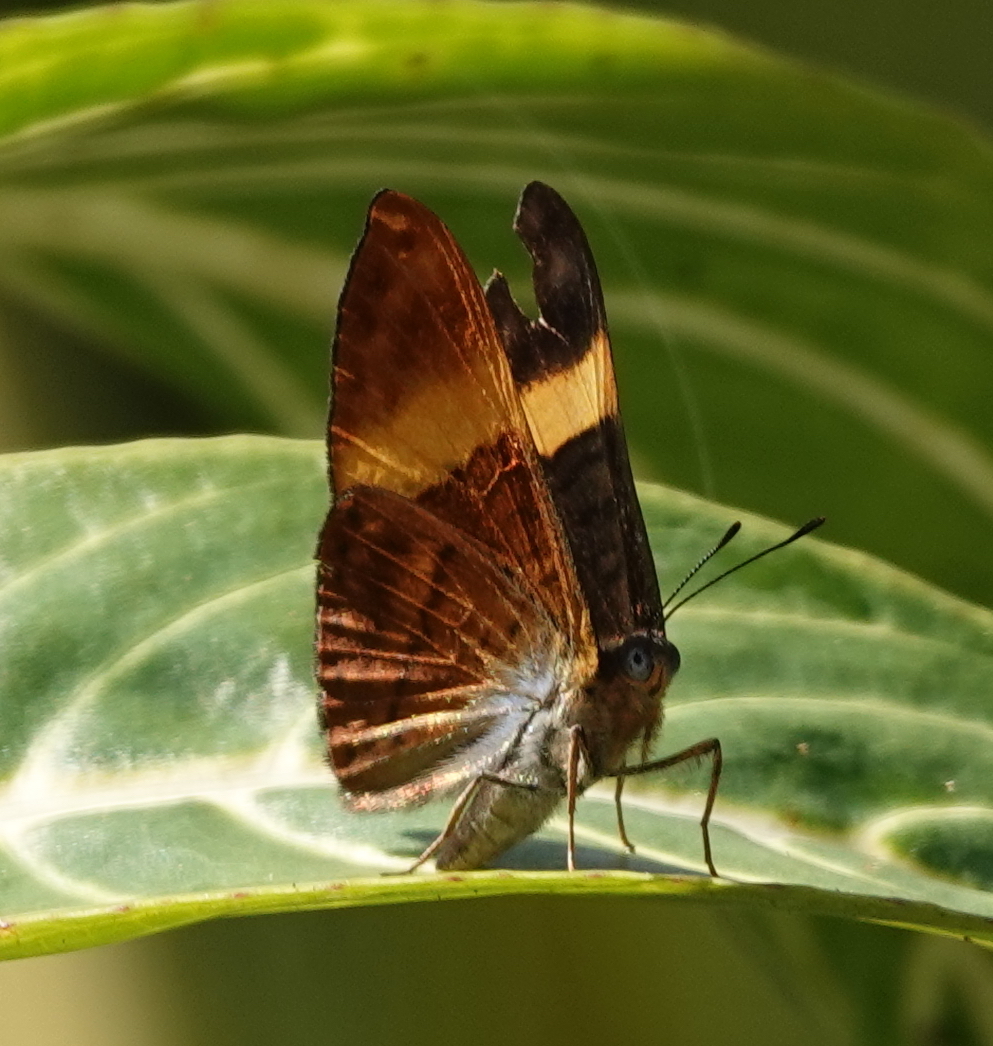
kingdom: Animalia
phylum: Arthropoda
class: Insecta
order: Lepidoptera
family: Lycaenidae
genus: Emesis
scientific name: Emesis cypria
